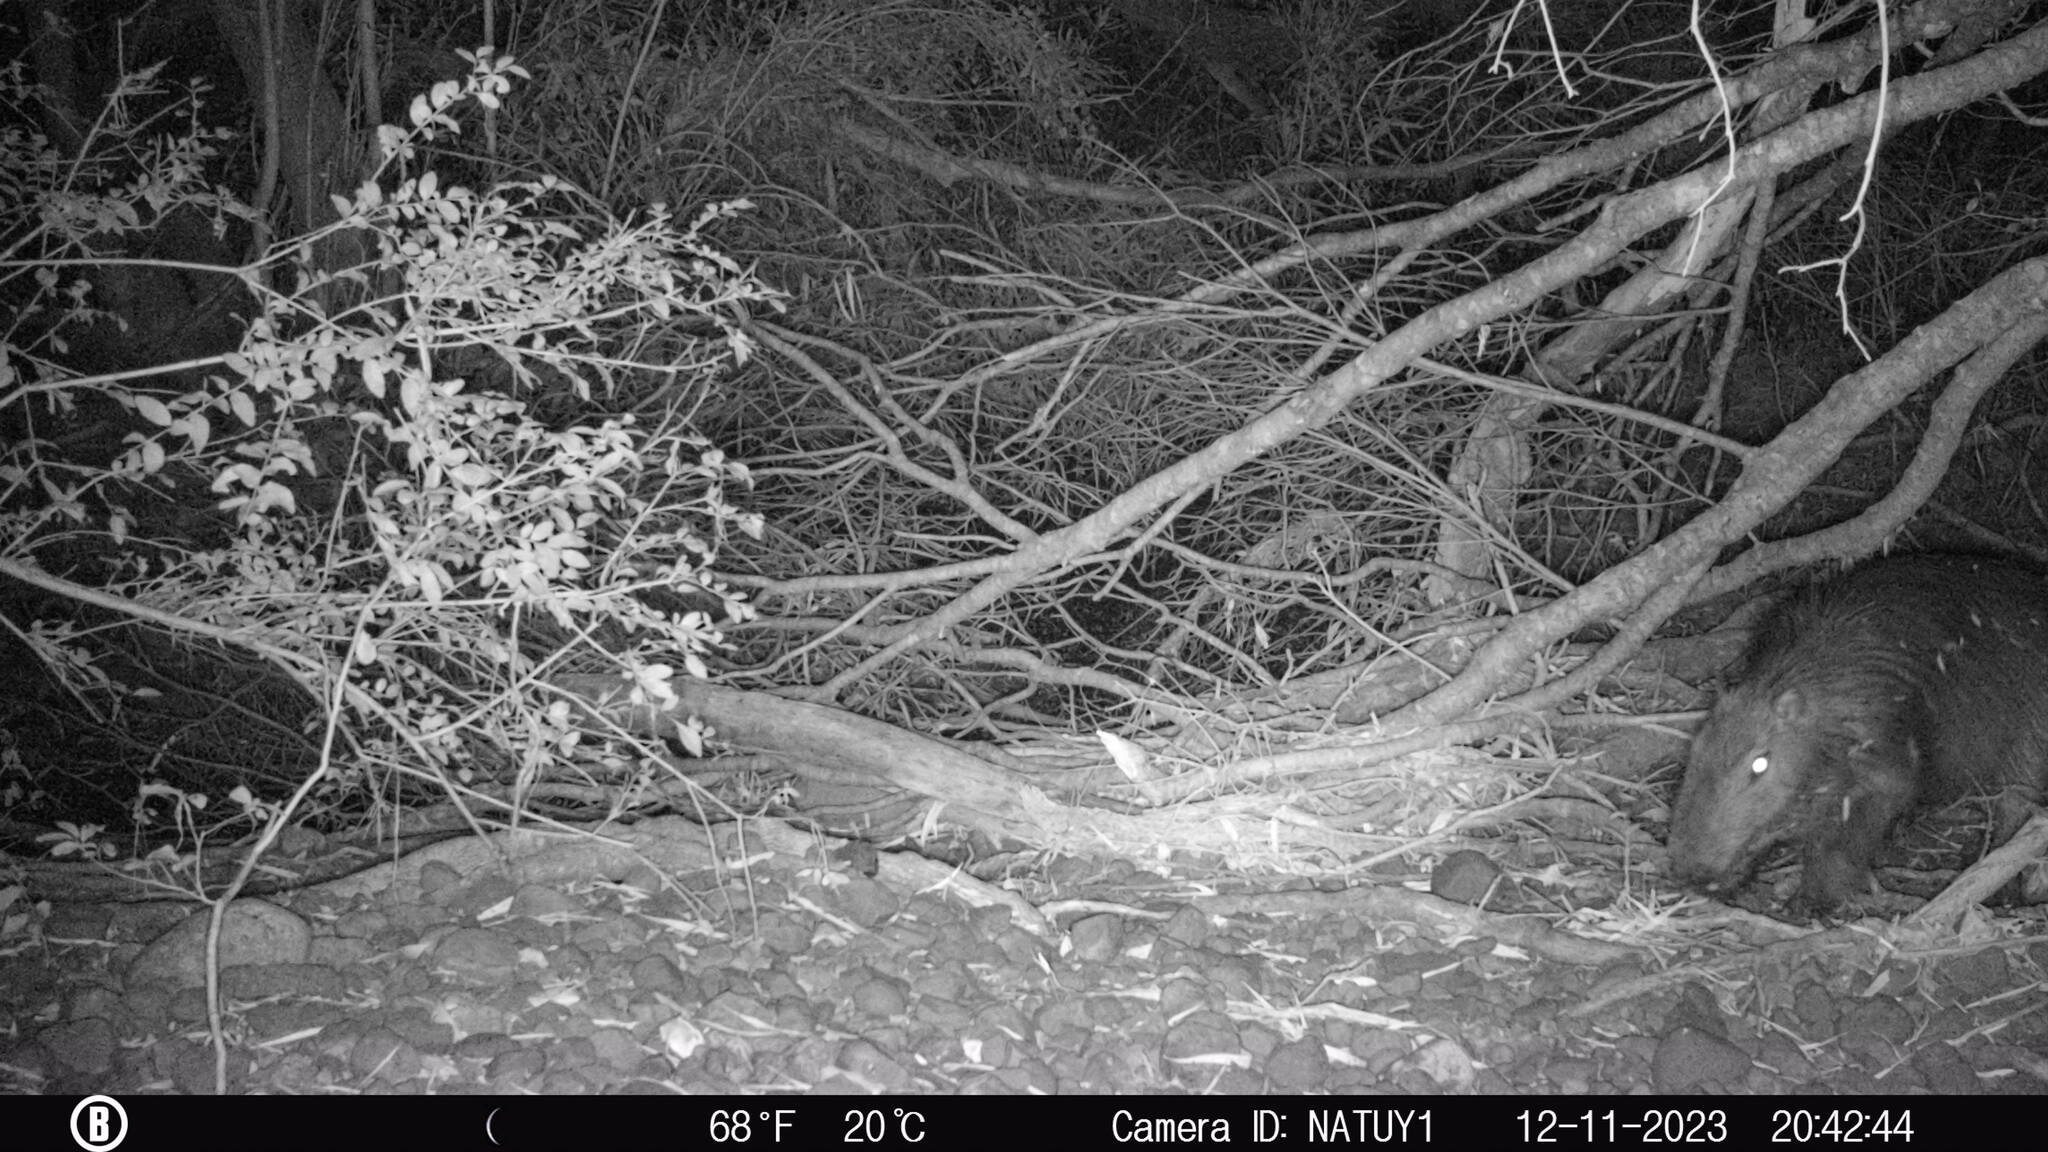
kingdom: Animalia
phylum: Chordata
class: Mammalia
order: Rodentia
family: Caviidae
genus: Hydrochoerus
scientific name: Hydrochoerus hydrochaeris
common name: Capybara
